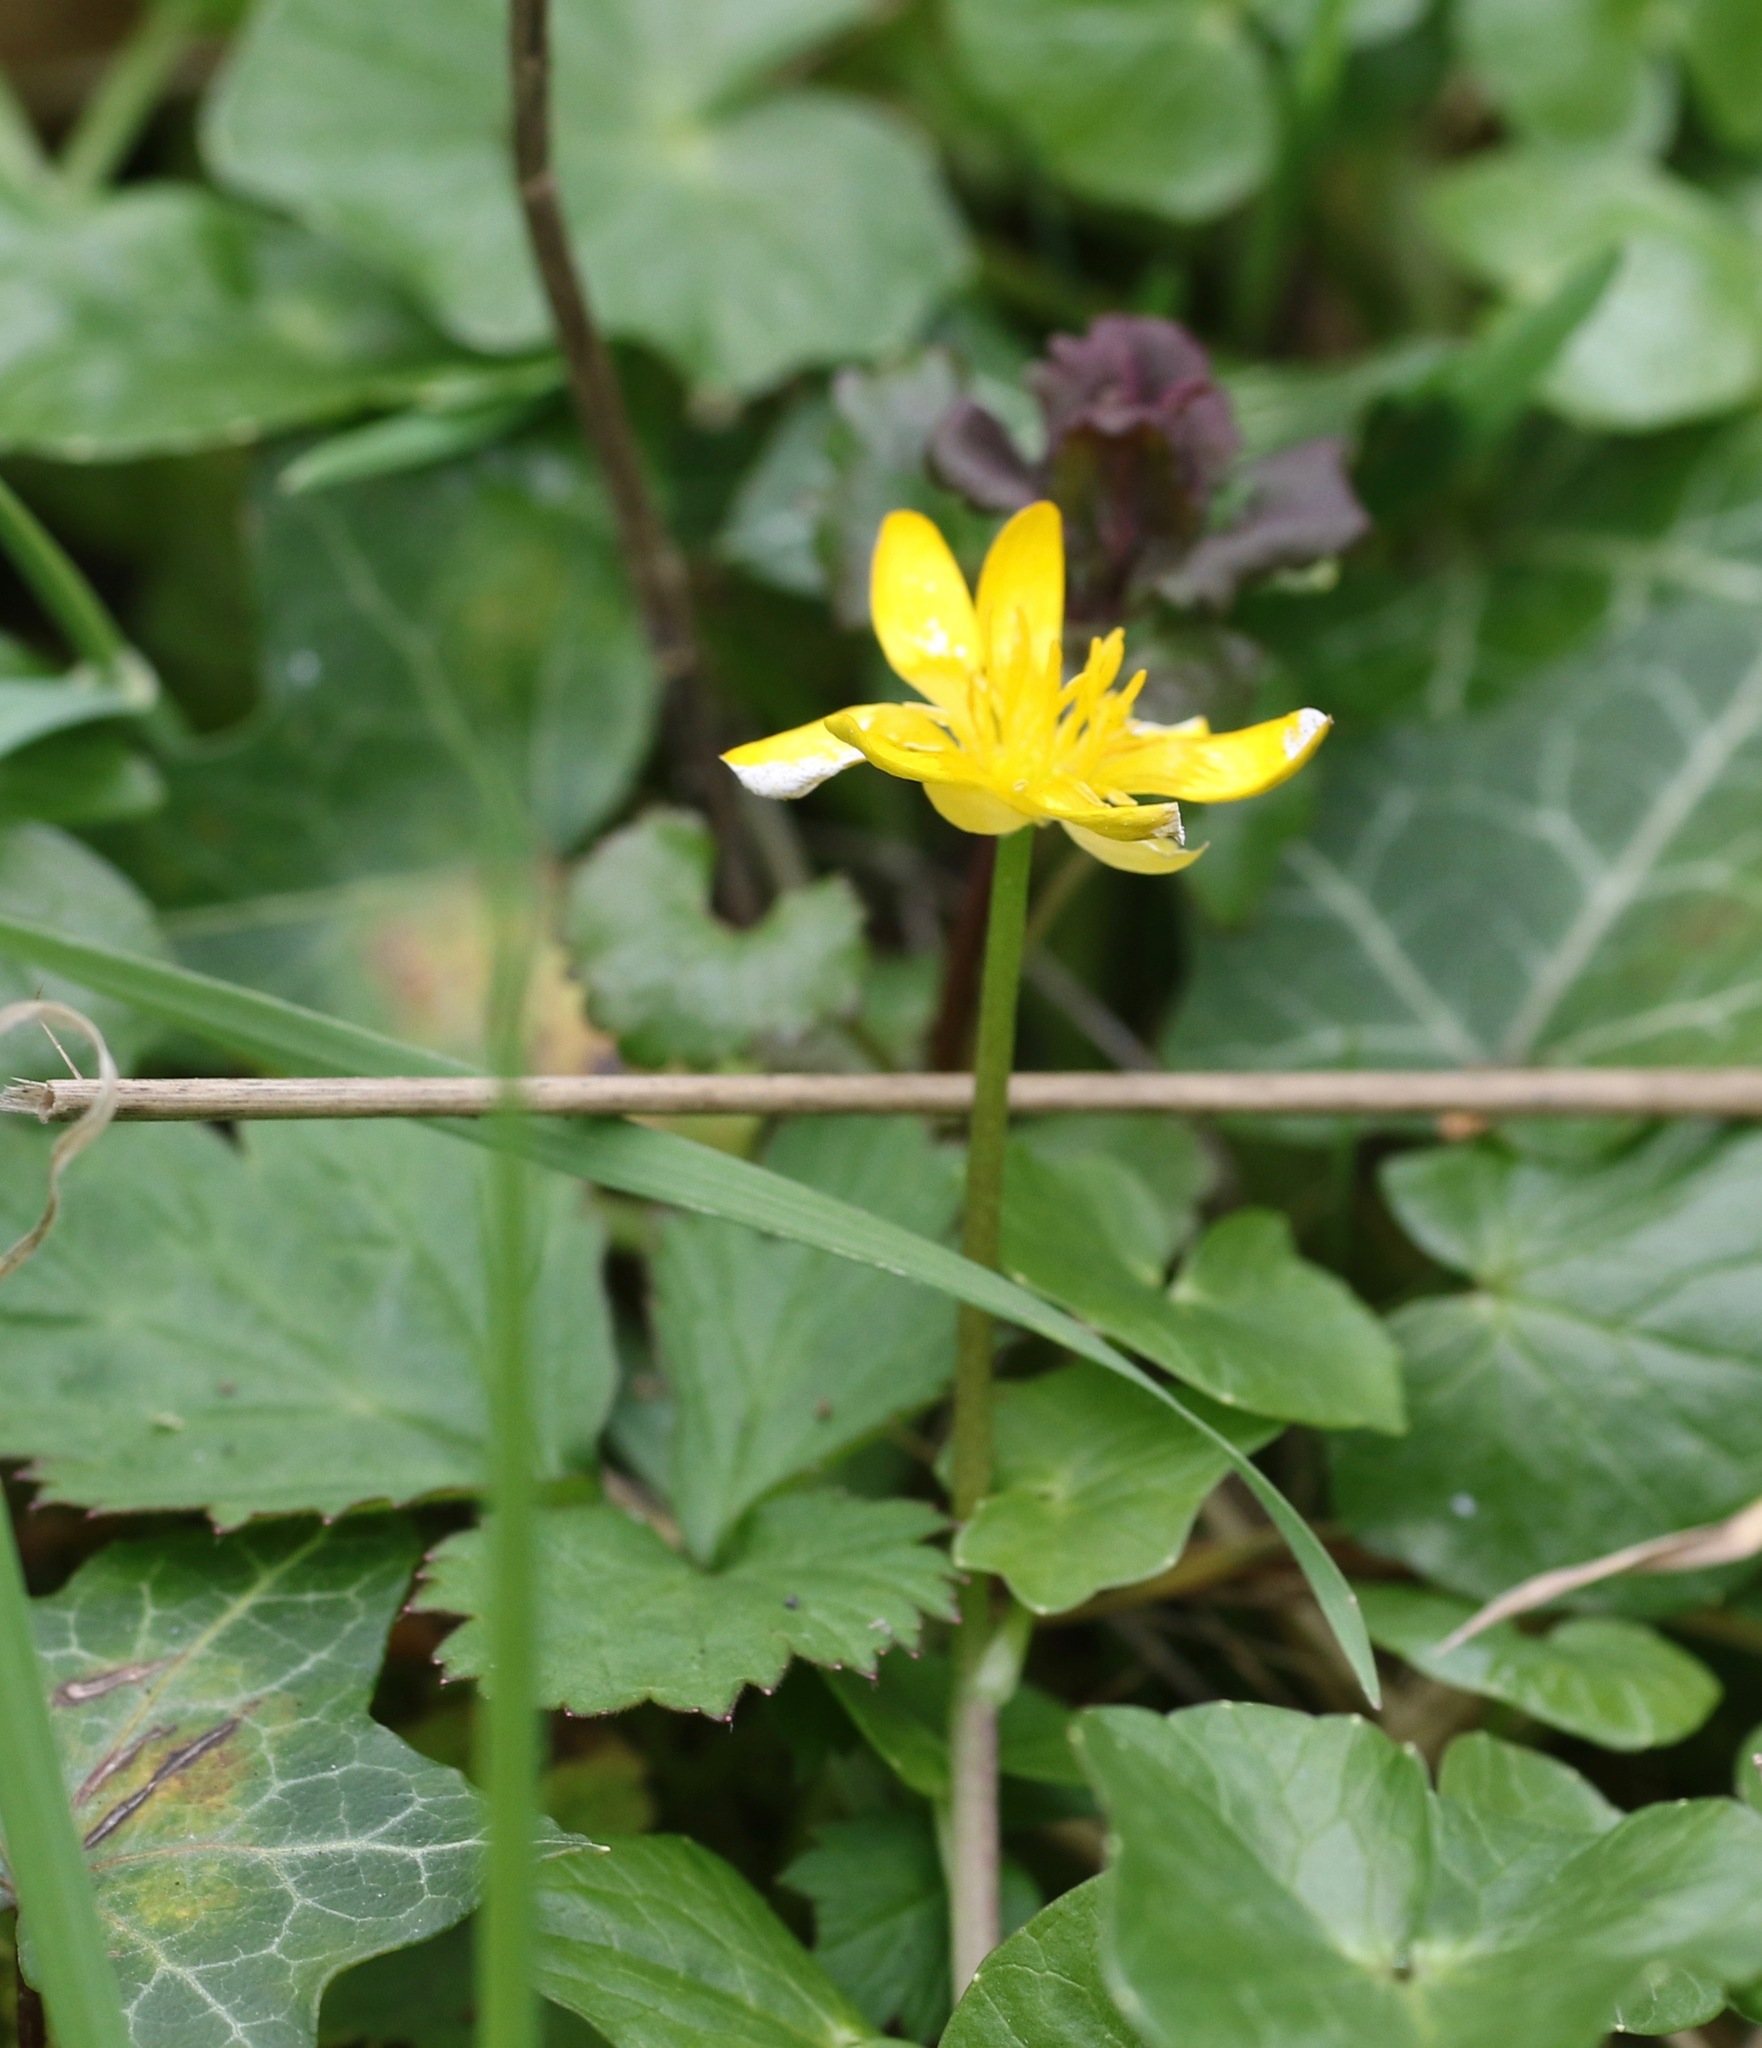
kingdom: Plantae
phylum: Tracheophyta
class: Magnoliopsida
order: Ranunculales
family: Ranunculaceae
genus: Ficaria
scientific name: Ficaria verna
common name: Lesser celandine
